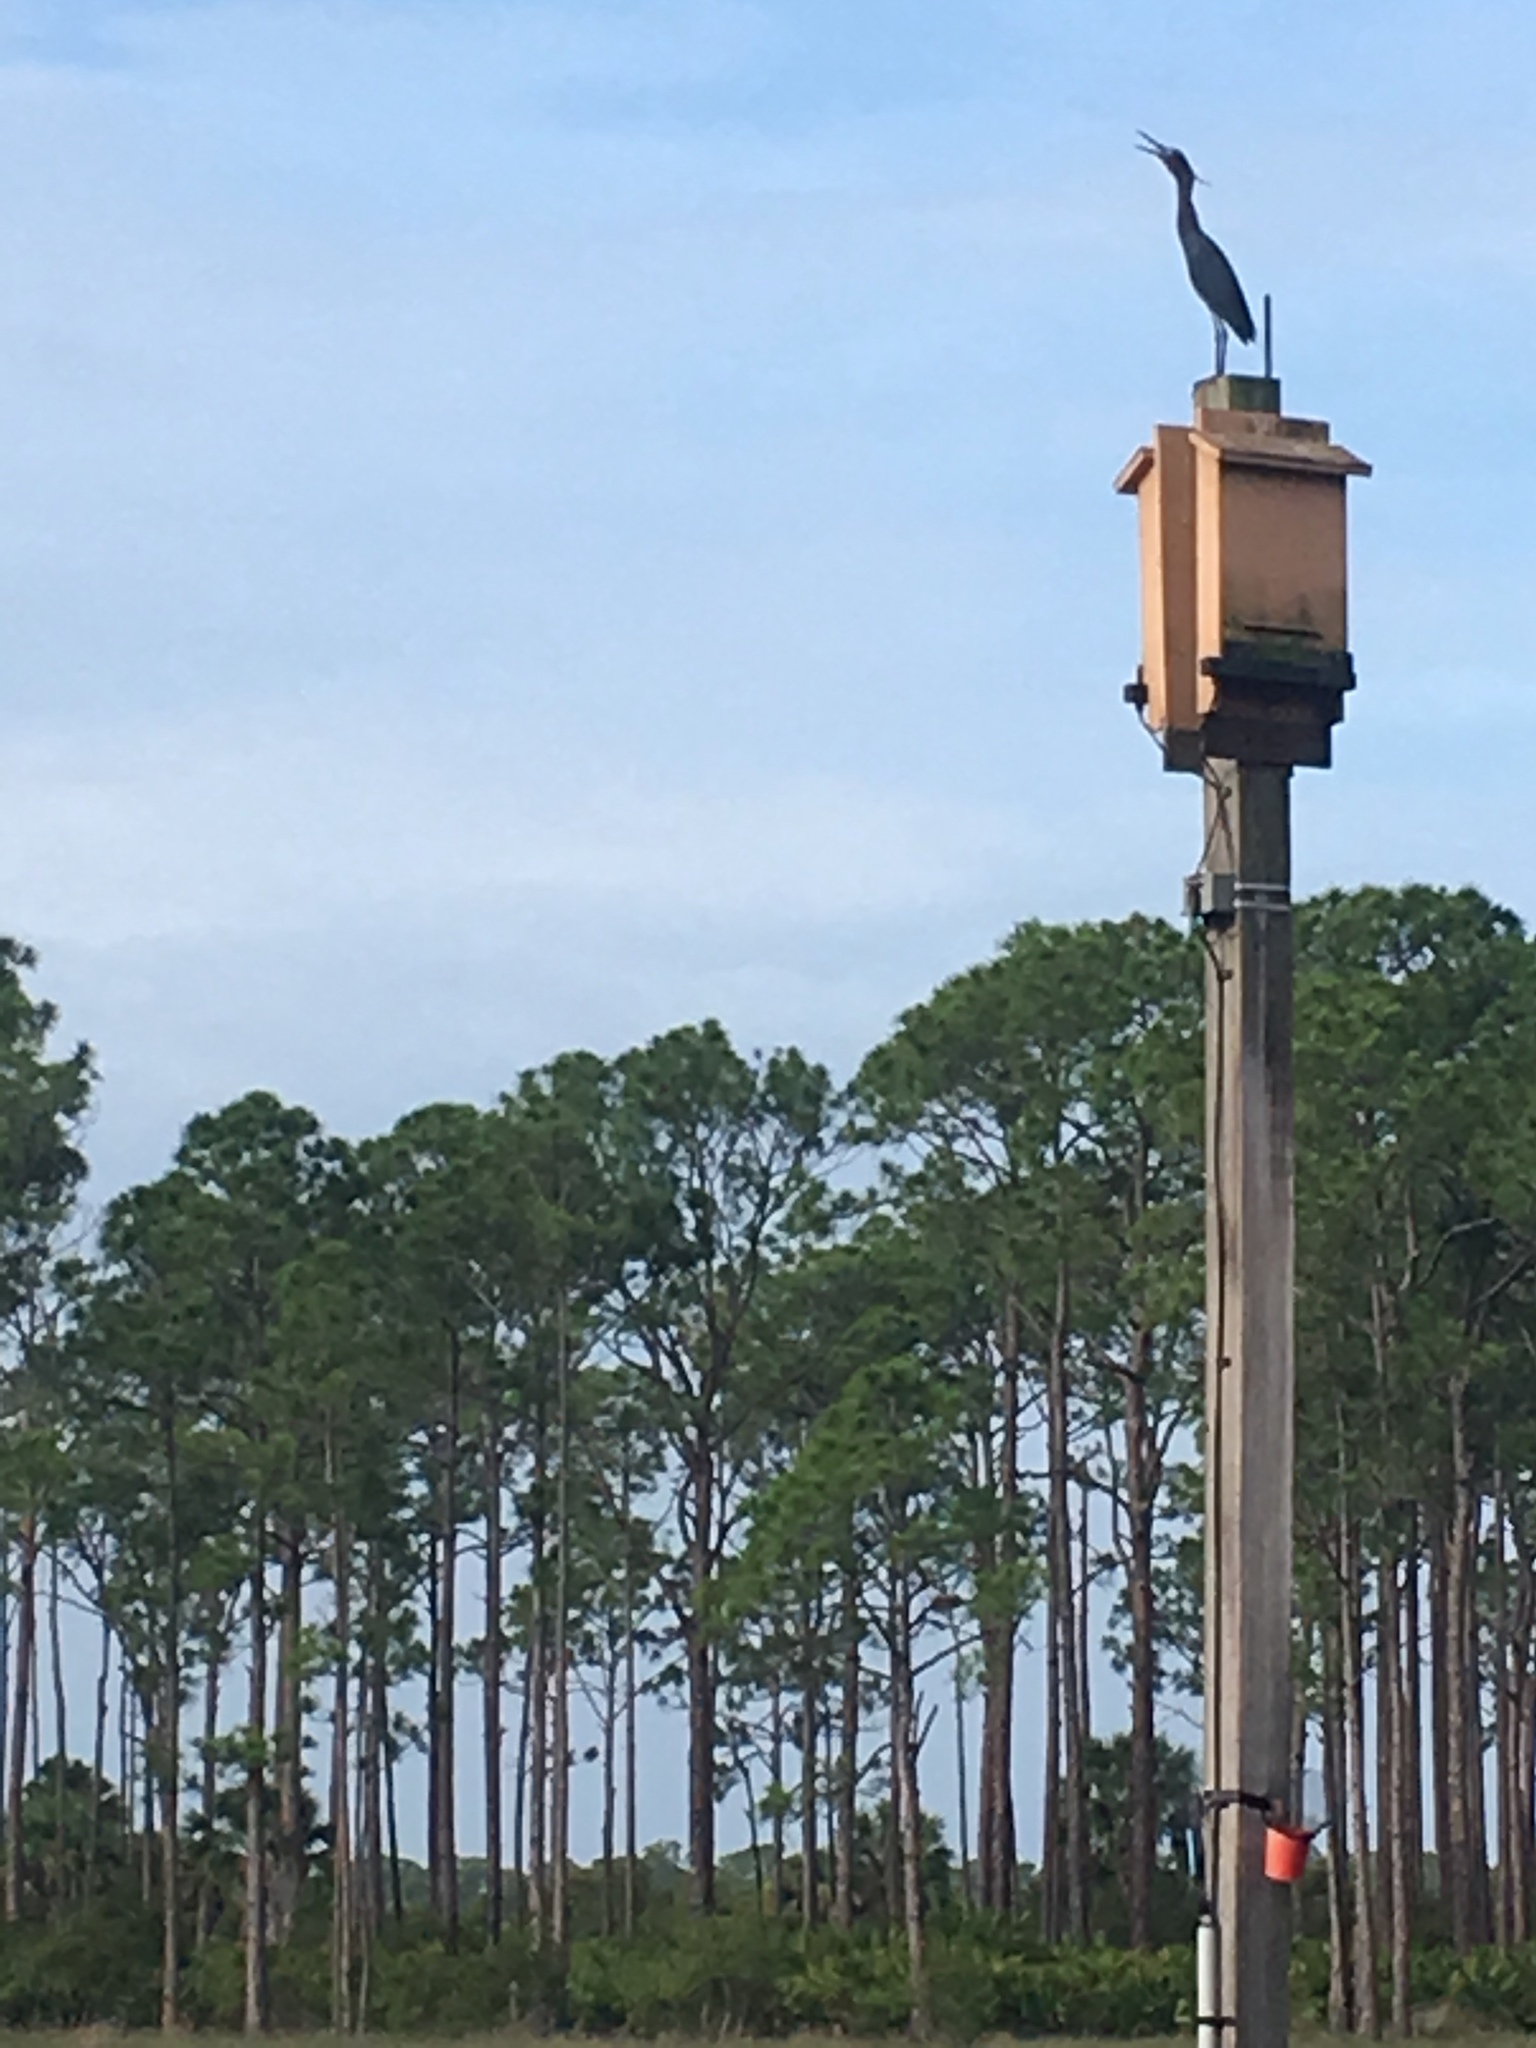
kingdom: Animalia
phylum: Chordata
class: Aves
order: Pelecaniformes
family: Ardeidae
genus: Egretta
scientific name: Egretta caerulea
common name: Little blue heron
